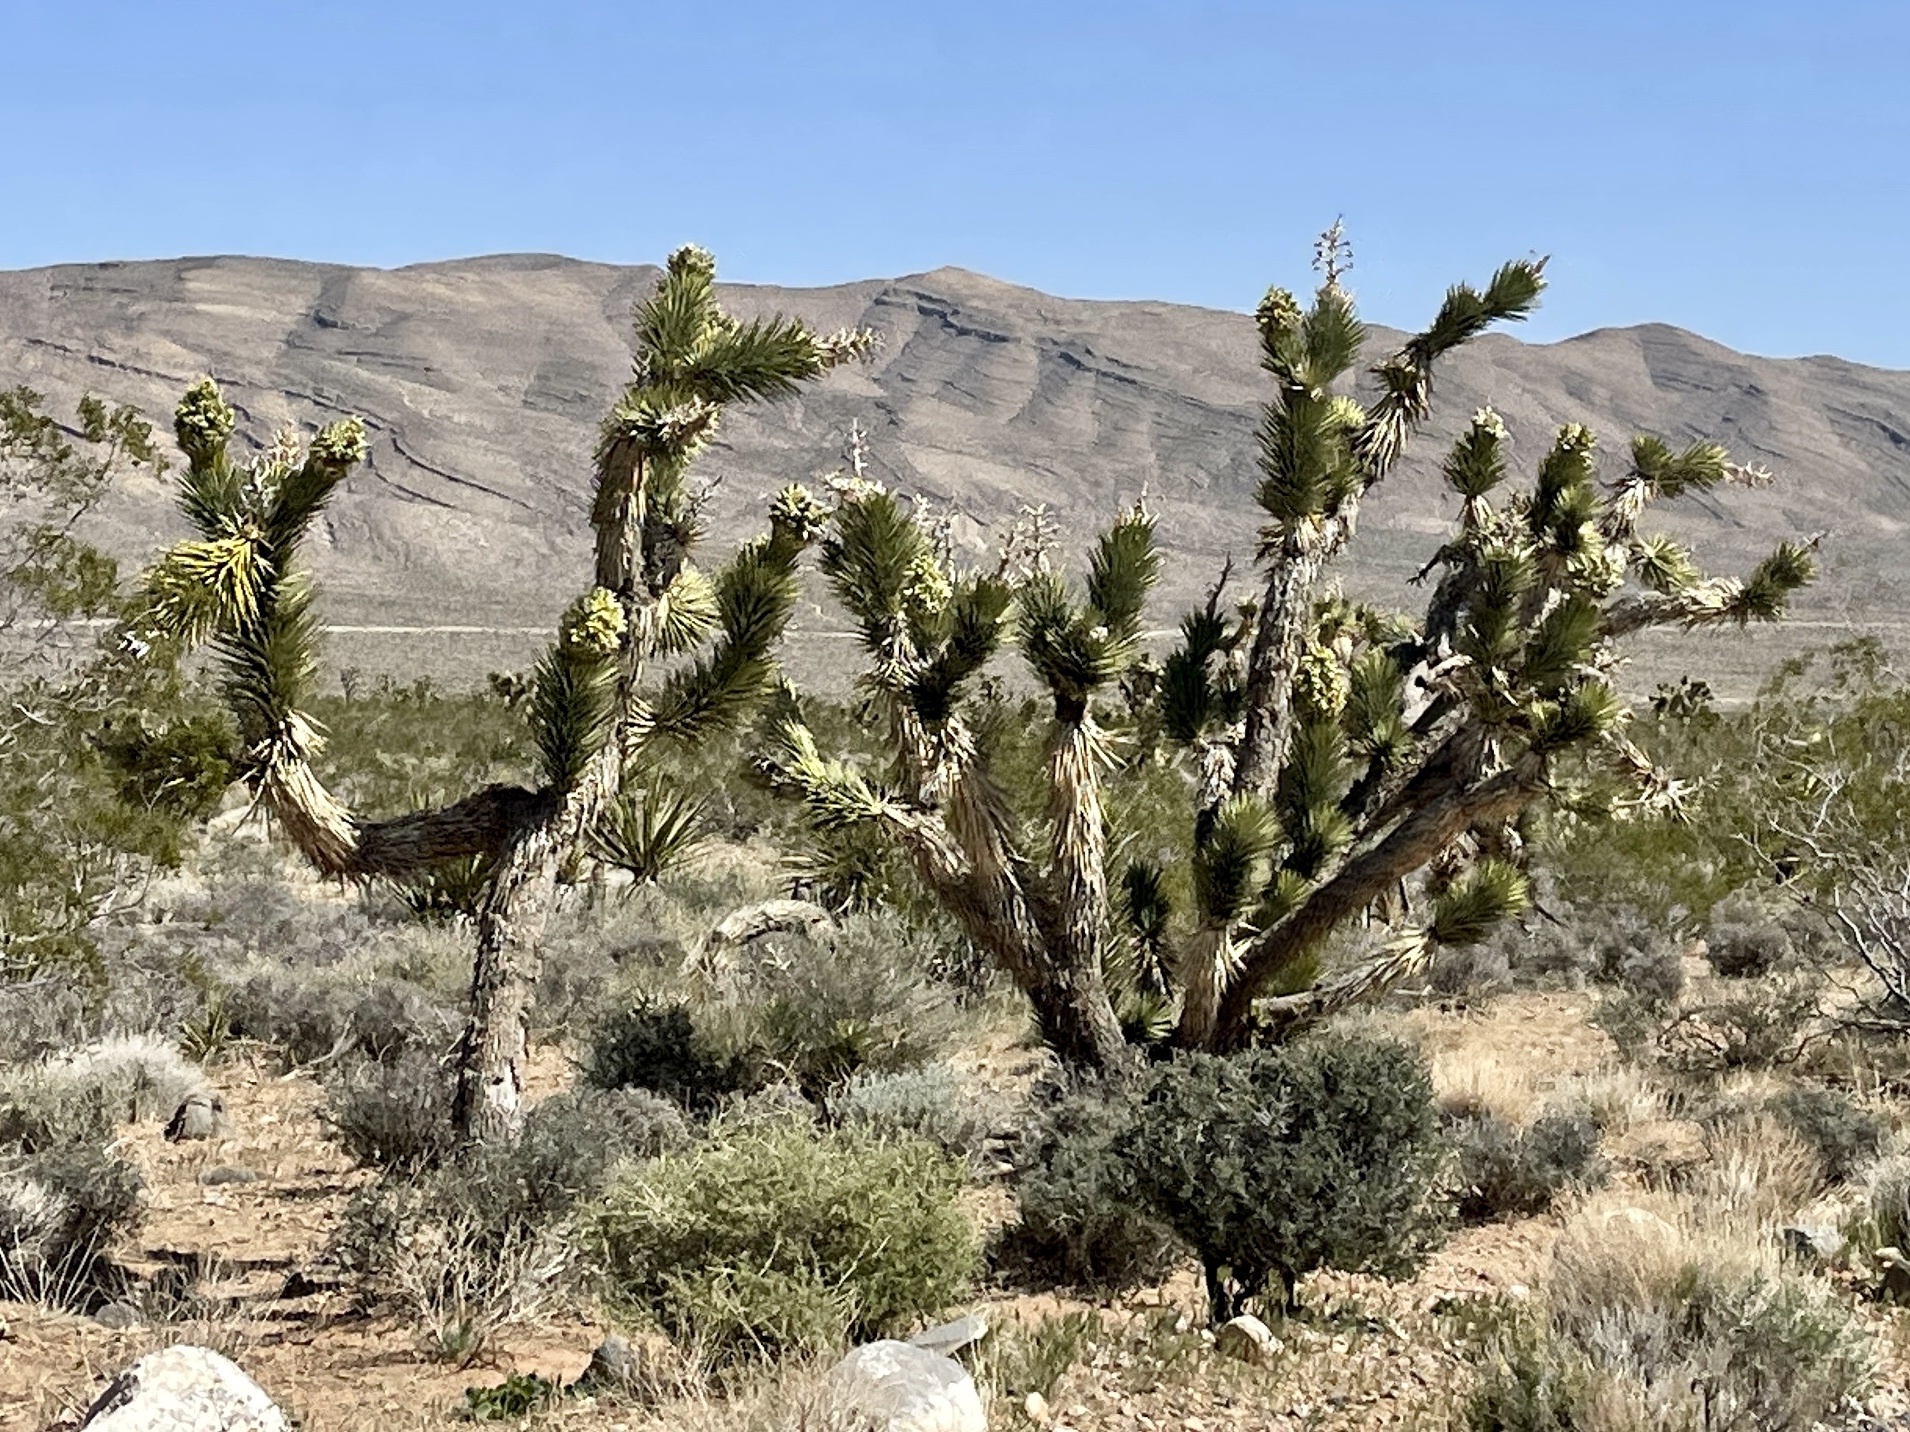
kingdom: Plantae
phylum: Tracheophyta
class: Liliopsida
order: Asparagales
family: Asparagaceae
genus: Yucca
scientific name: Yucca brevifolia
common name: Joshua tree
